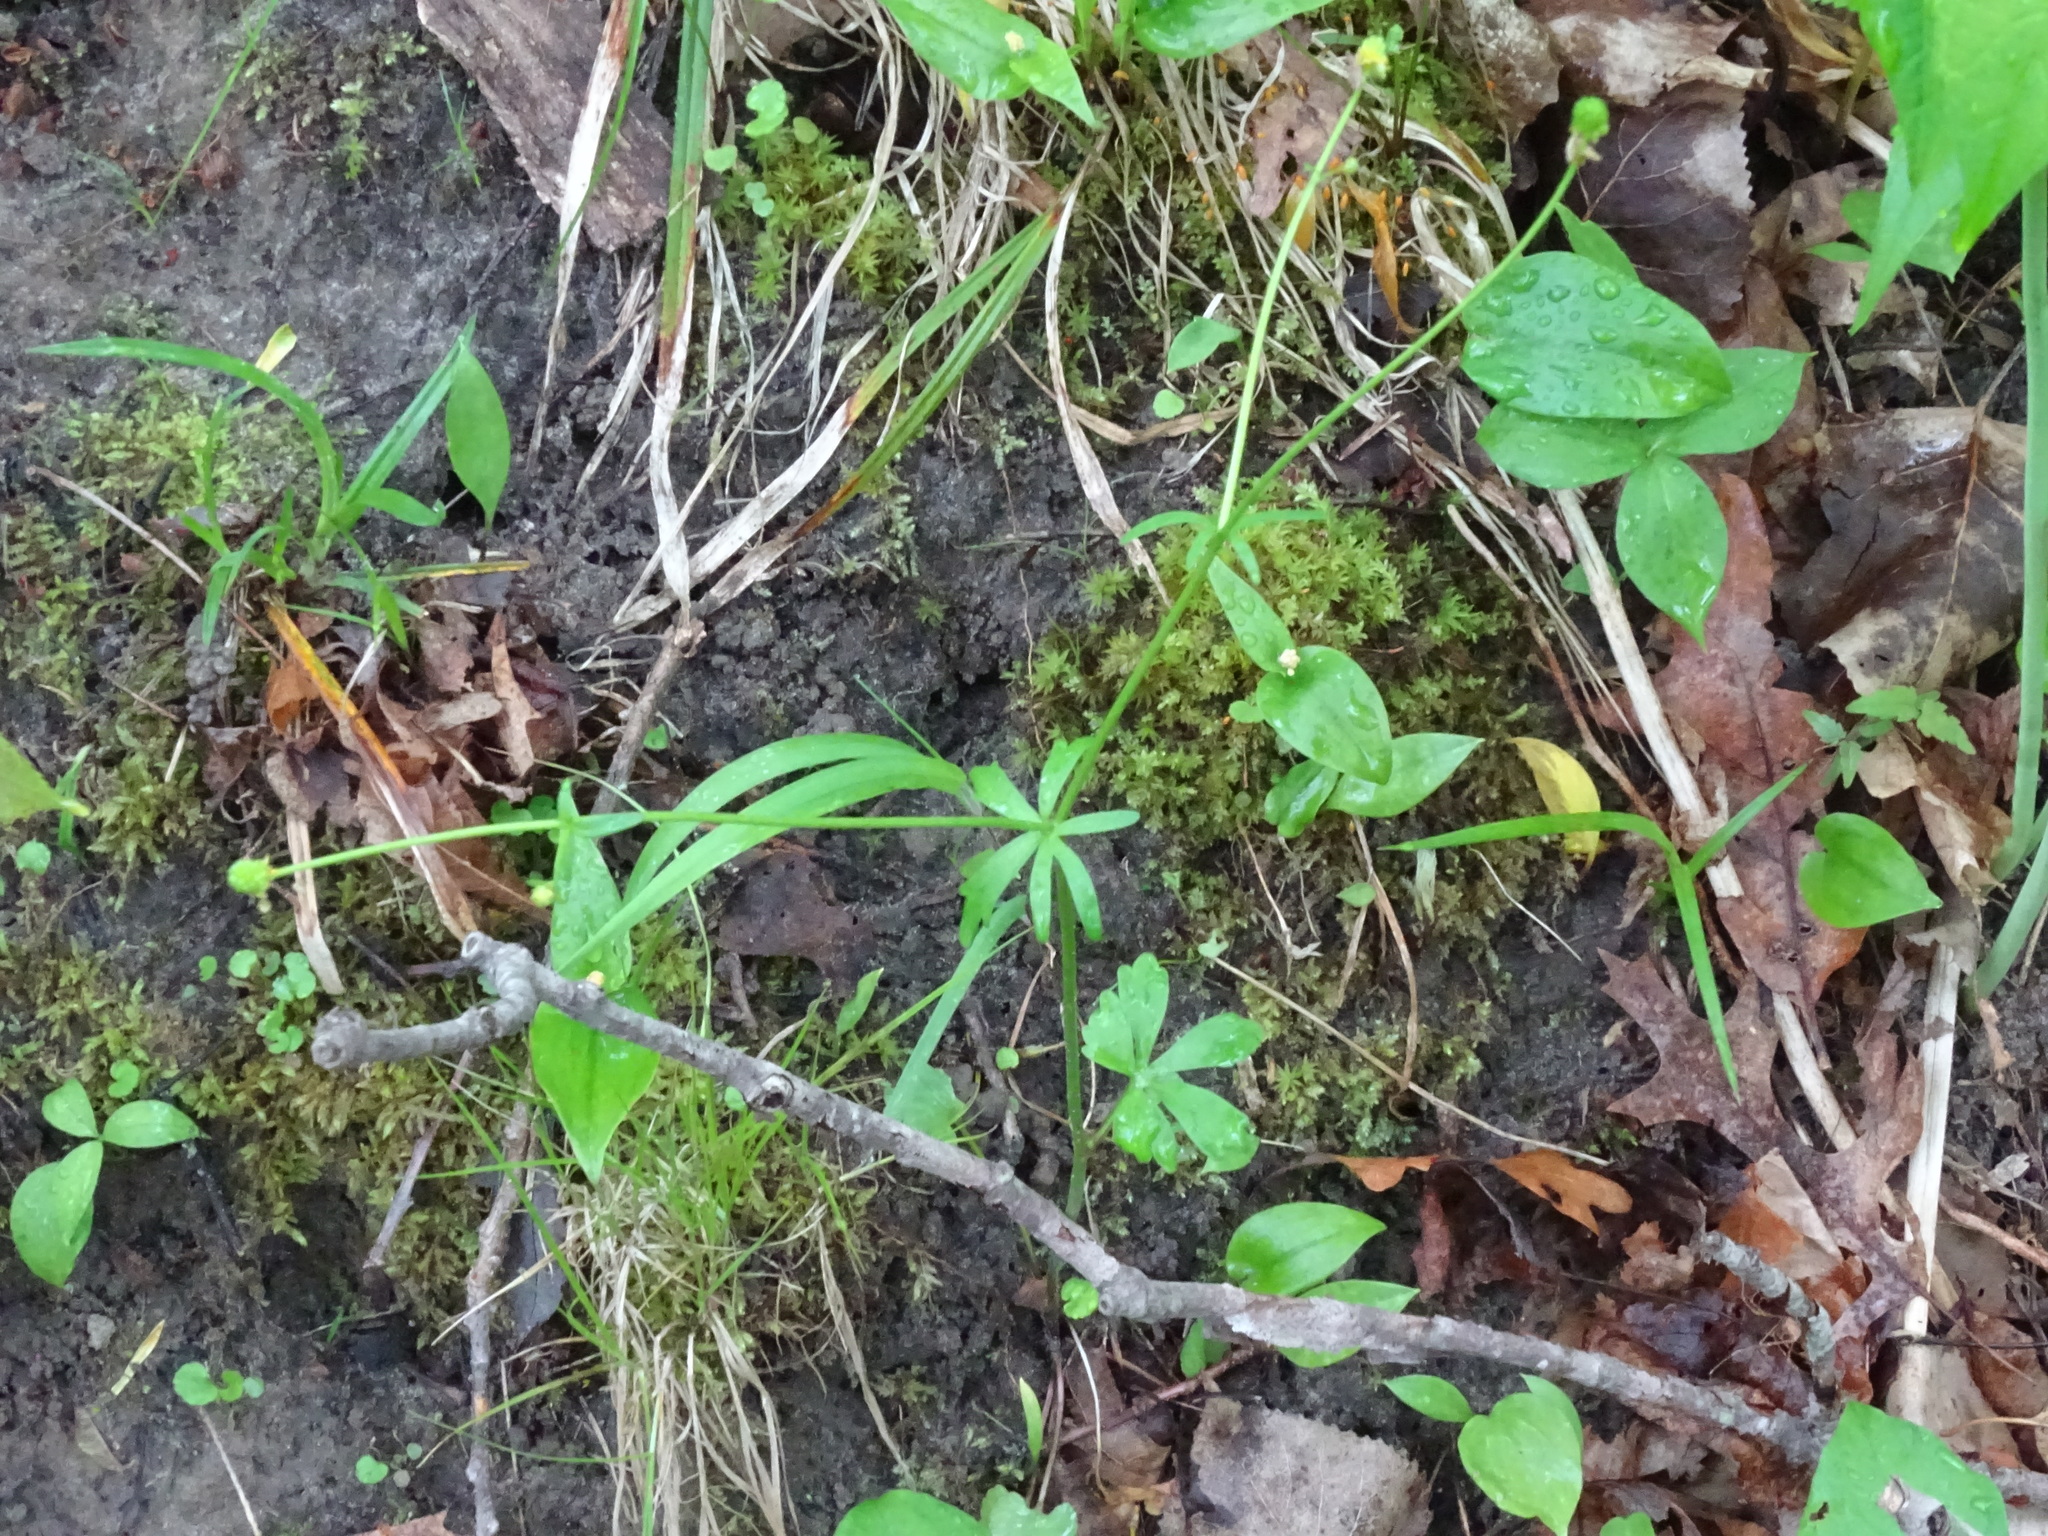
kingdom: Plantae
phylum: Tracheophyta
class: Magnoliopsida
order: Ranunculales
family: Ranunculaceae
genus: Ranunculus
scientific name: Ranunculus abortivus
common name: Early wood buttercup
